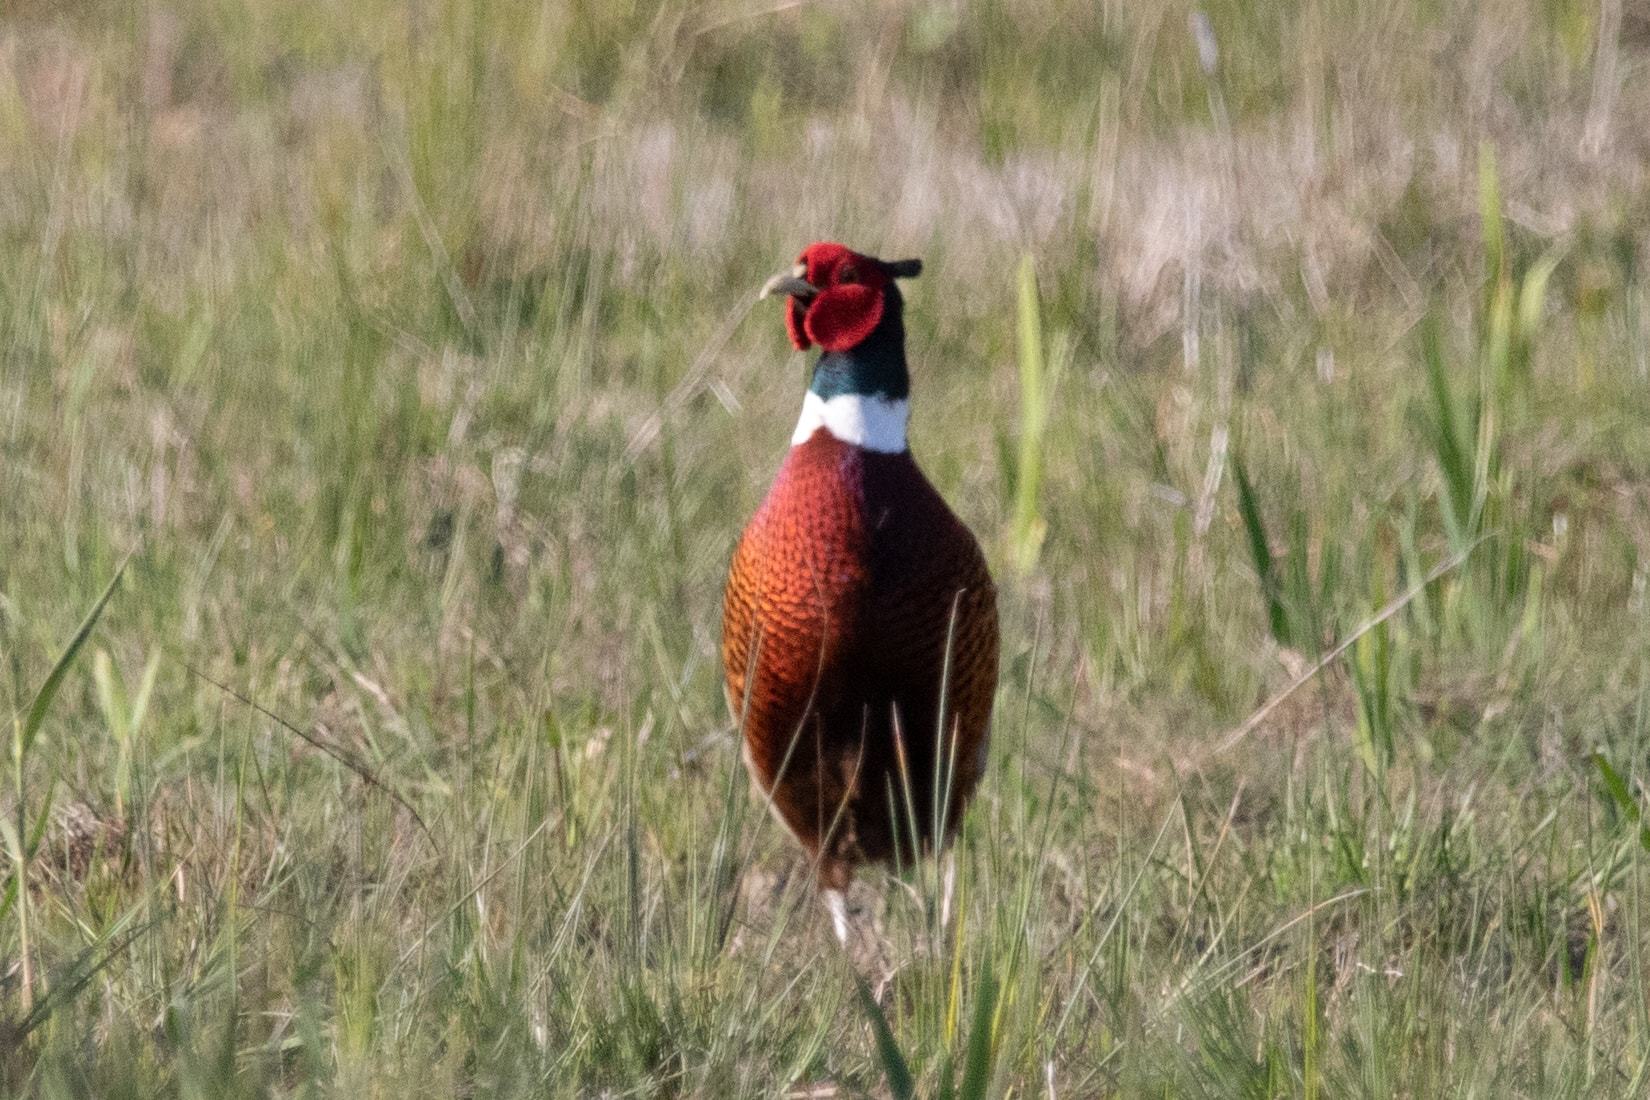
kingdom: Animalia
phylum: Chordata
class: Aves
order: Galliformes
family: Phasianidae
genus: Phasianus
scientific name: Phasianus colchicus
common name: Common pheasant
